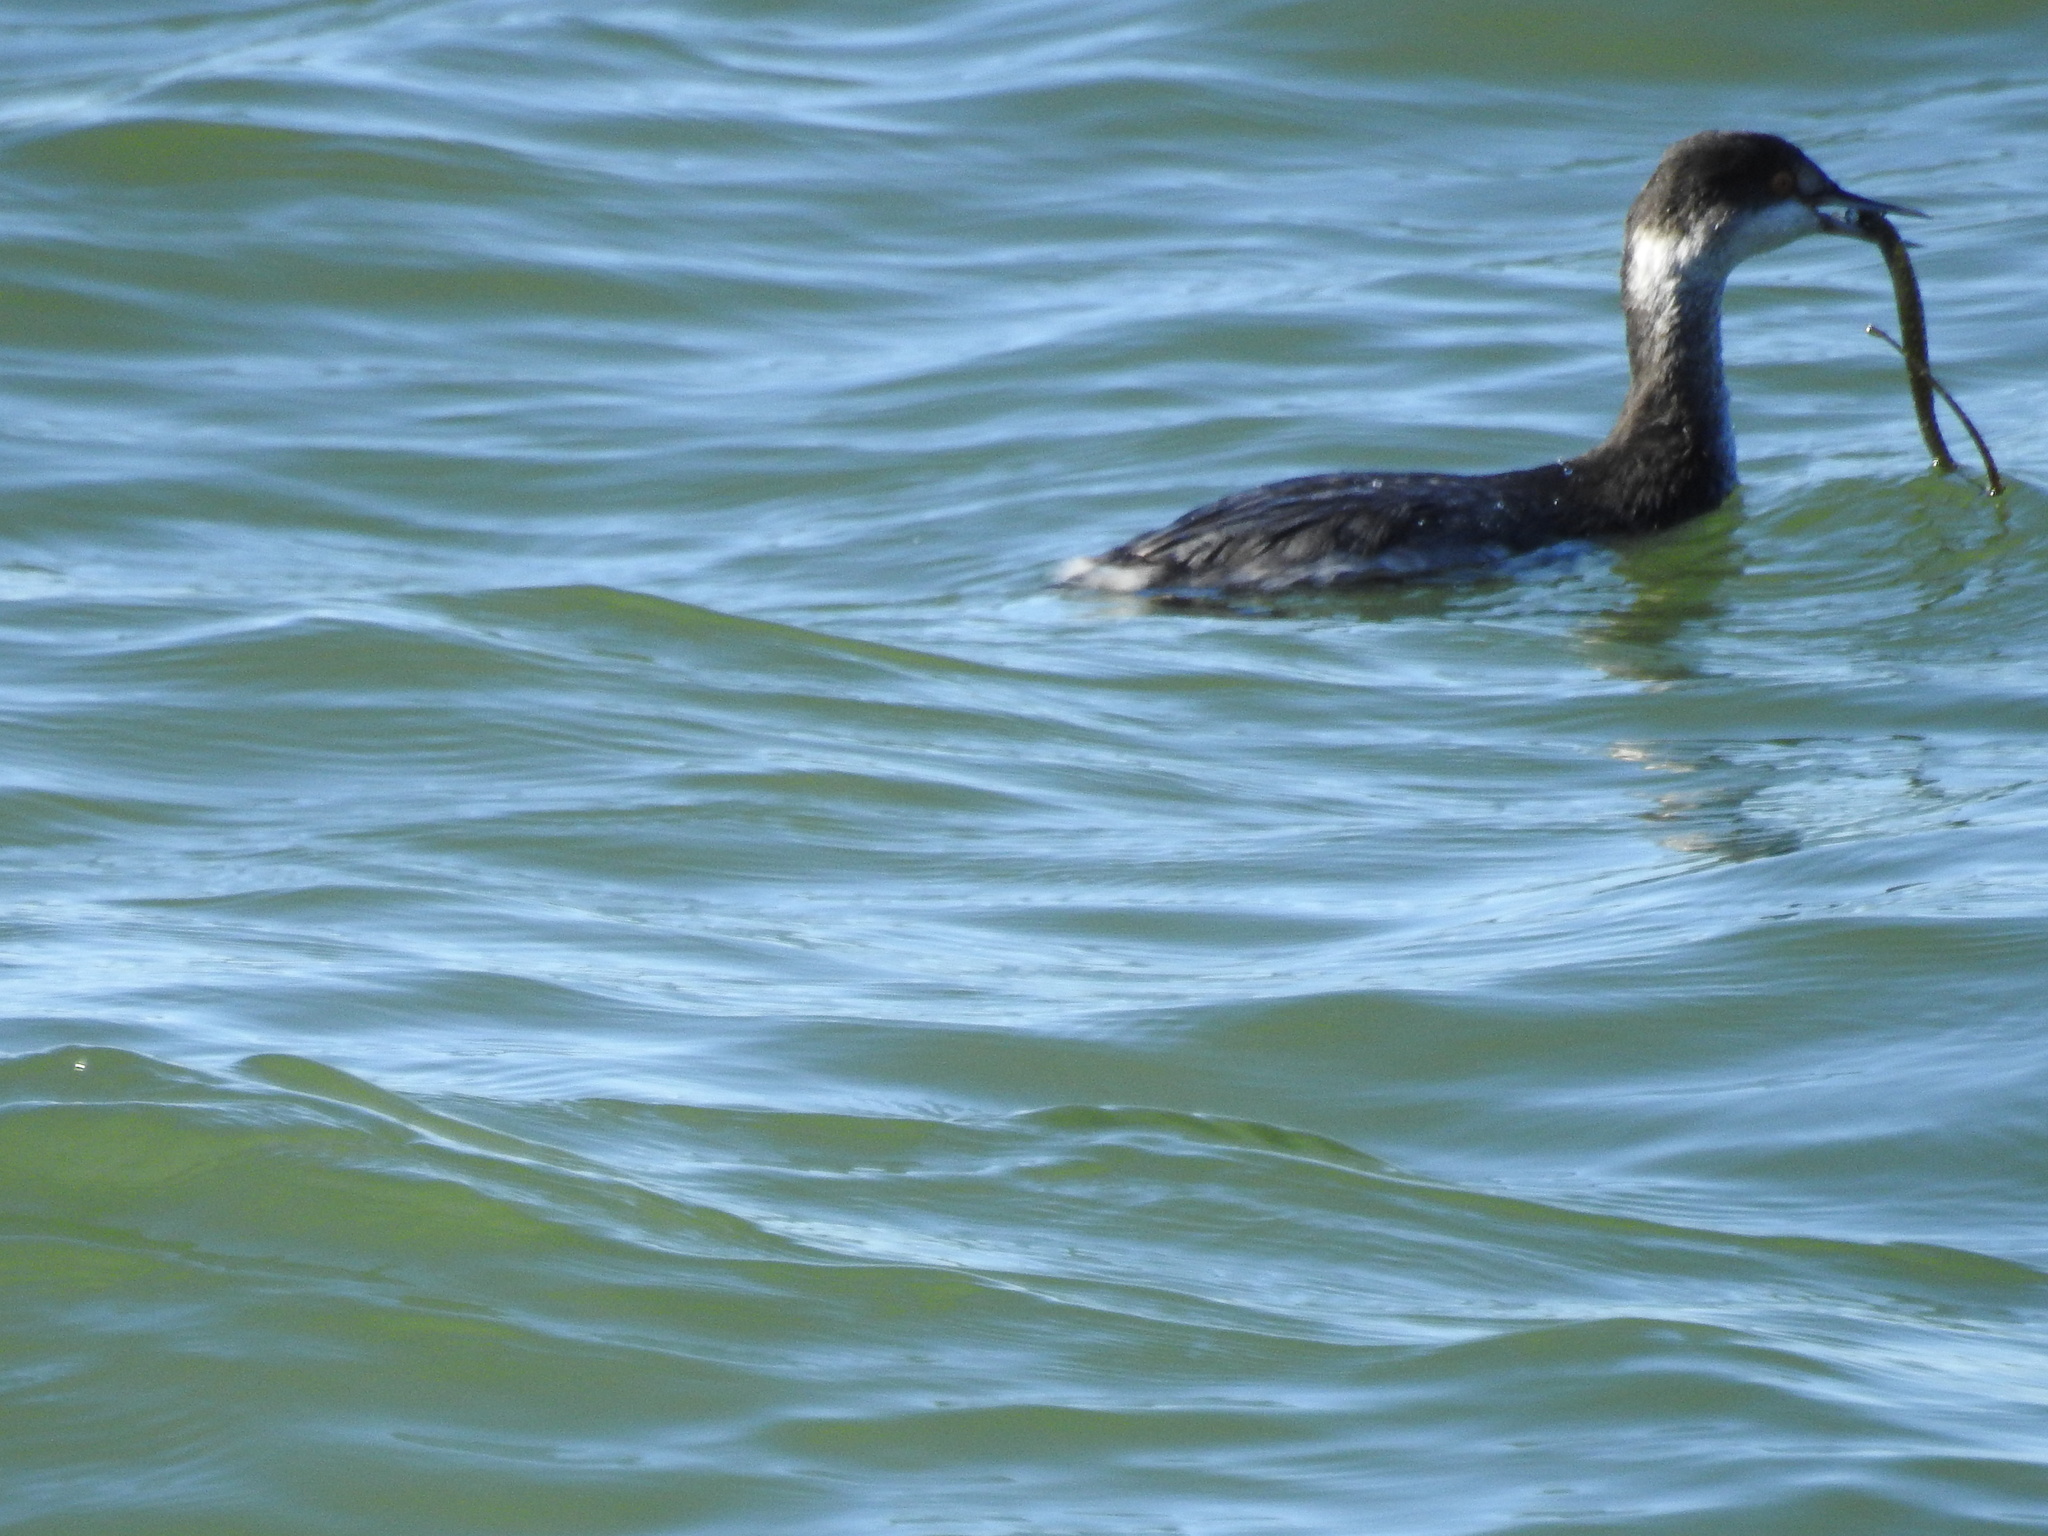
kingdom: Animalia
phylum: Chordata
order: Syngnathiformes
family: Syngnathidae
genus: Syngnathus
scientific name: Syngnathus californiensis
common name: Great pipefish
